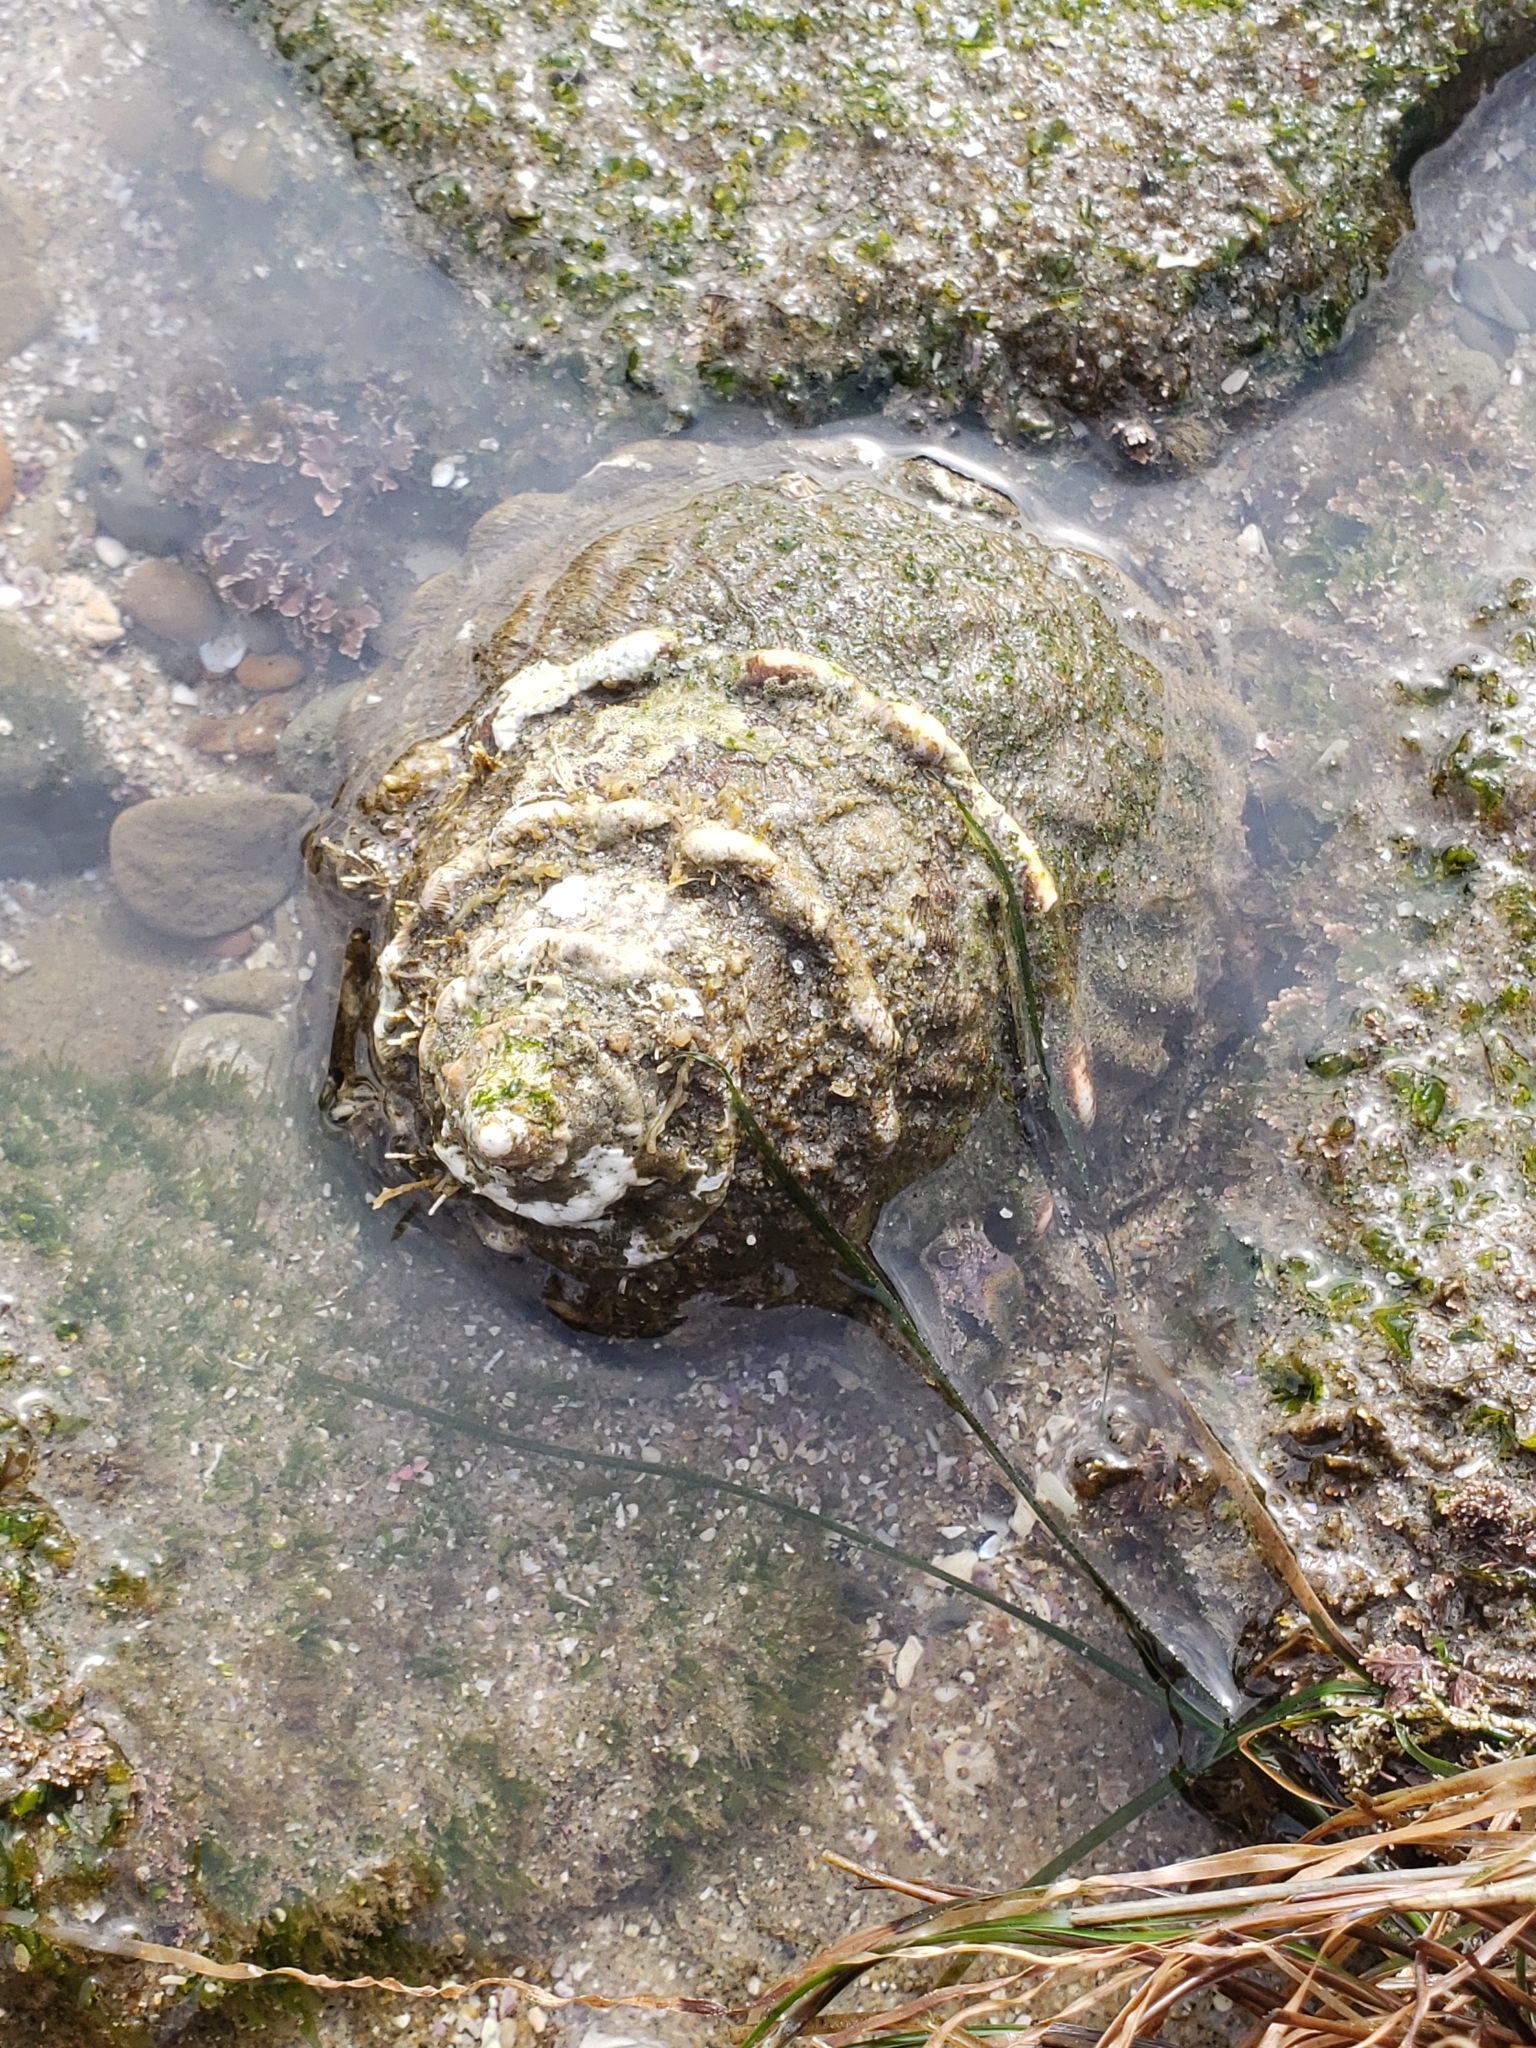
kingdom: Animalia
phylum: Mollusca
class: Gastropoda
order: Trochida
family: Turbinidae
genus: Megastraea
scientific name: Megastraea undosa
